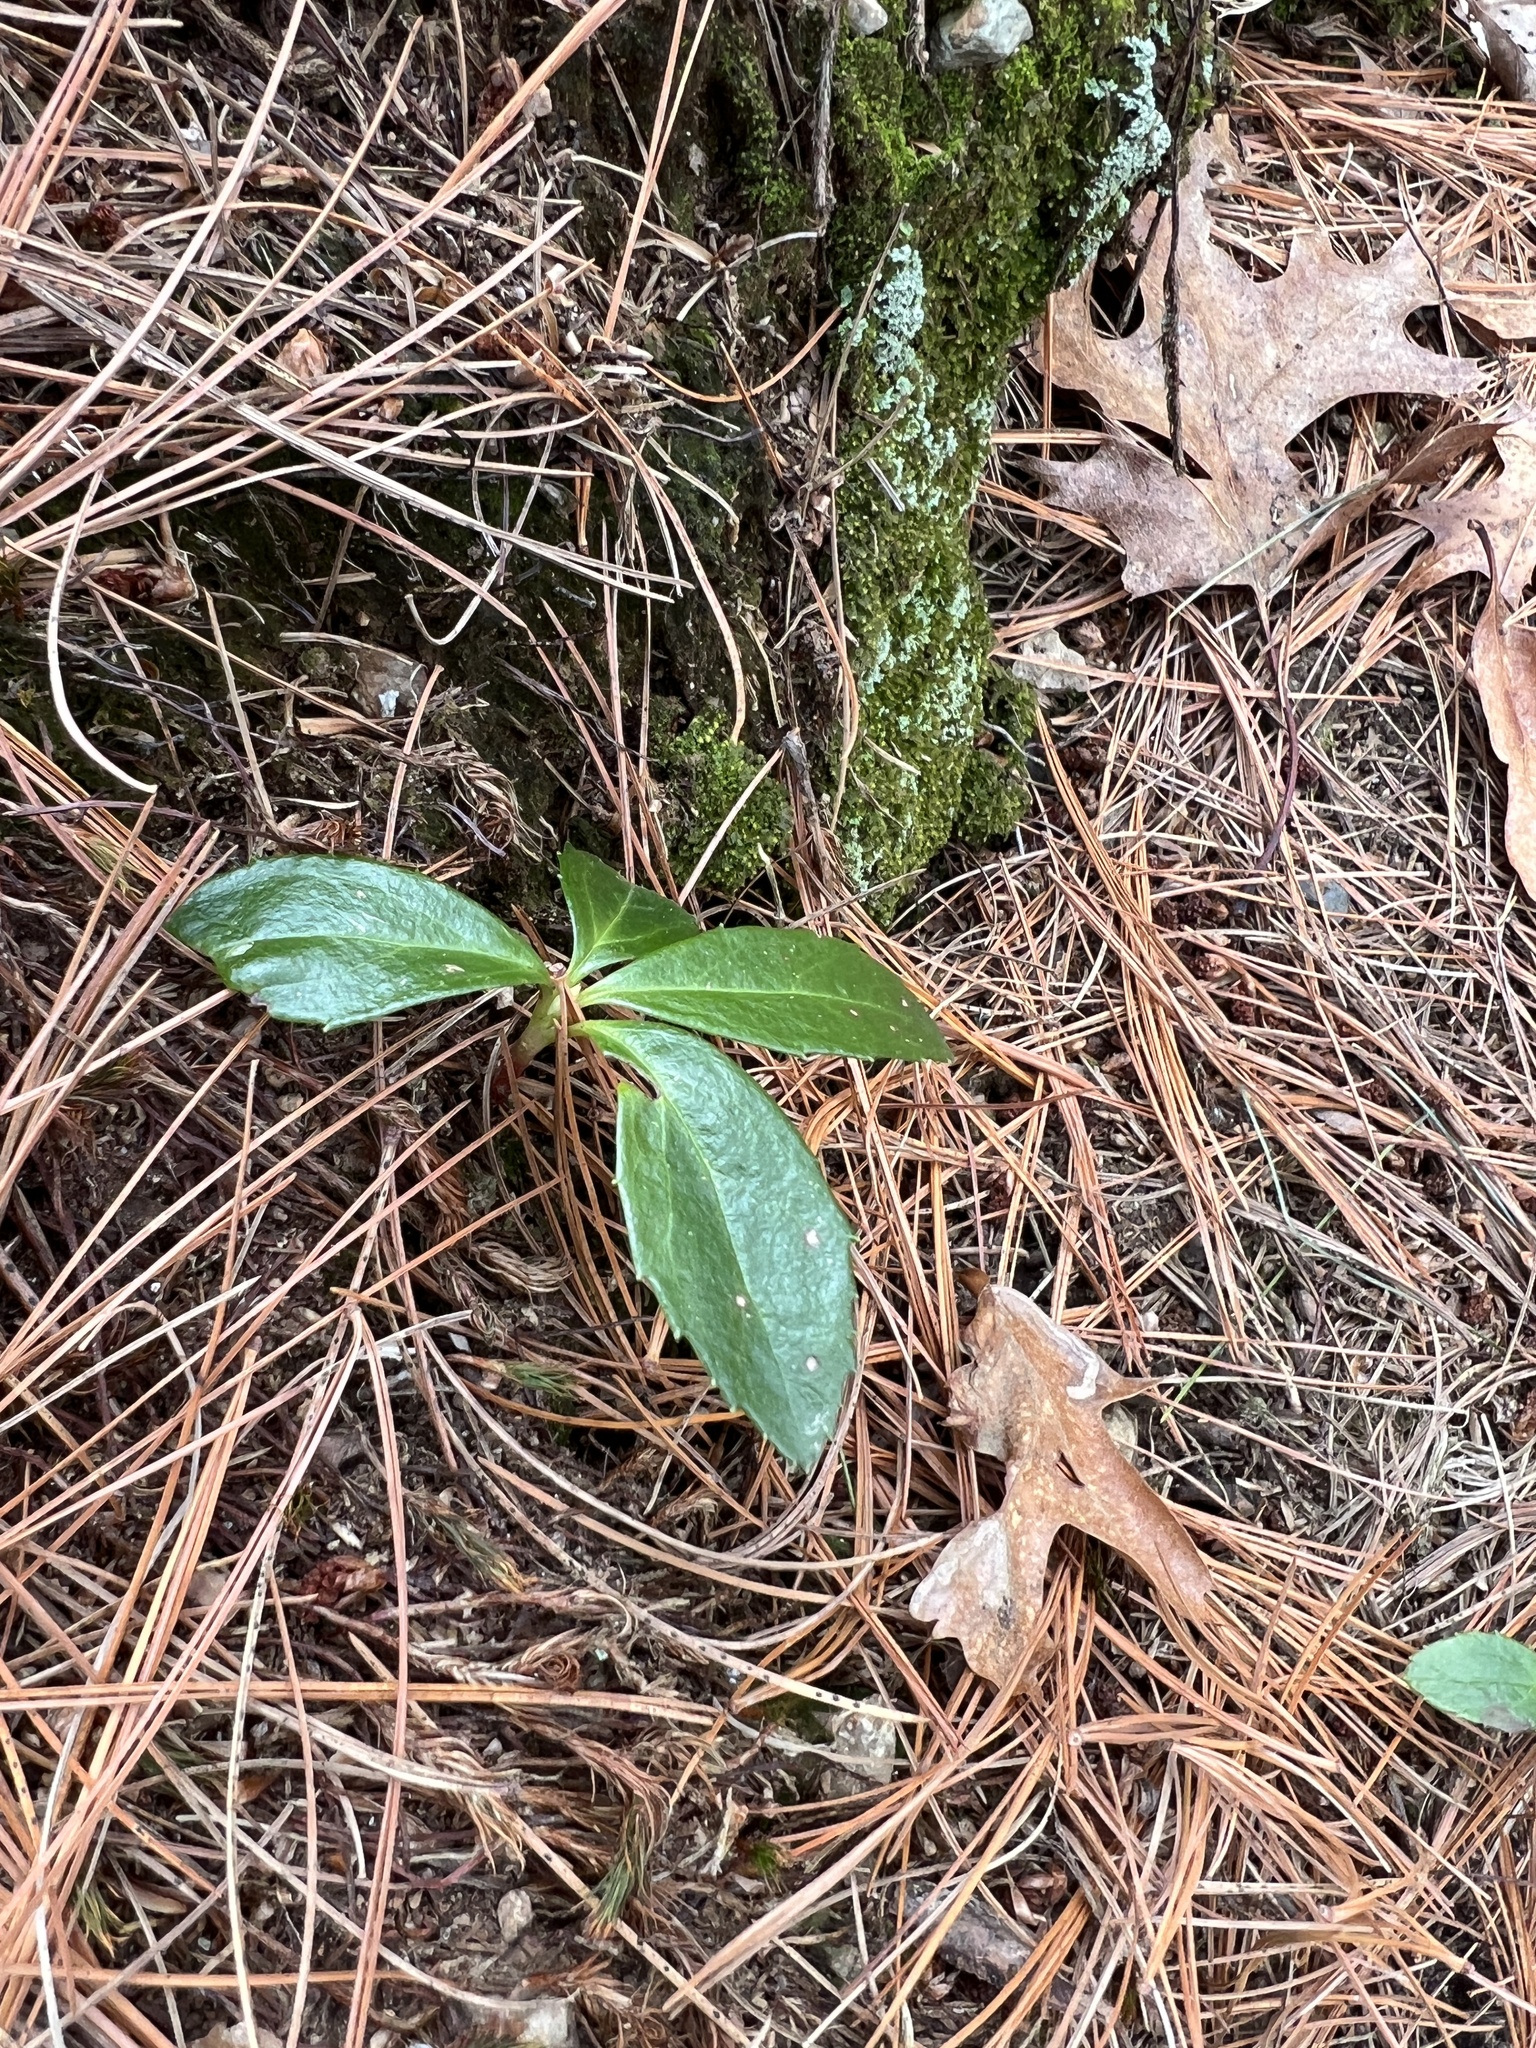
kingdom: Plantae
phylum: Tracheophyta
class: Magnoliopsida
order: Ericales
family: Ericaceae
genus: Chimaphila
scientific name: Chimaphila umbellata
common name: Pipsissewa
